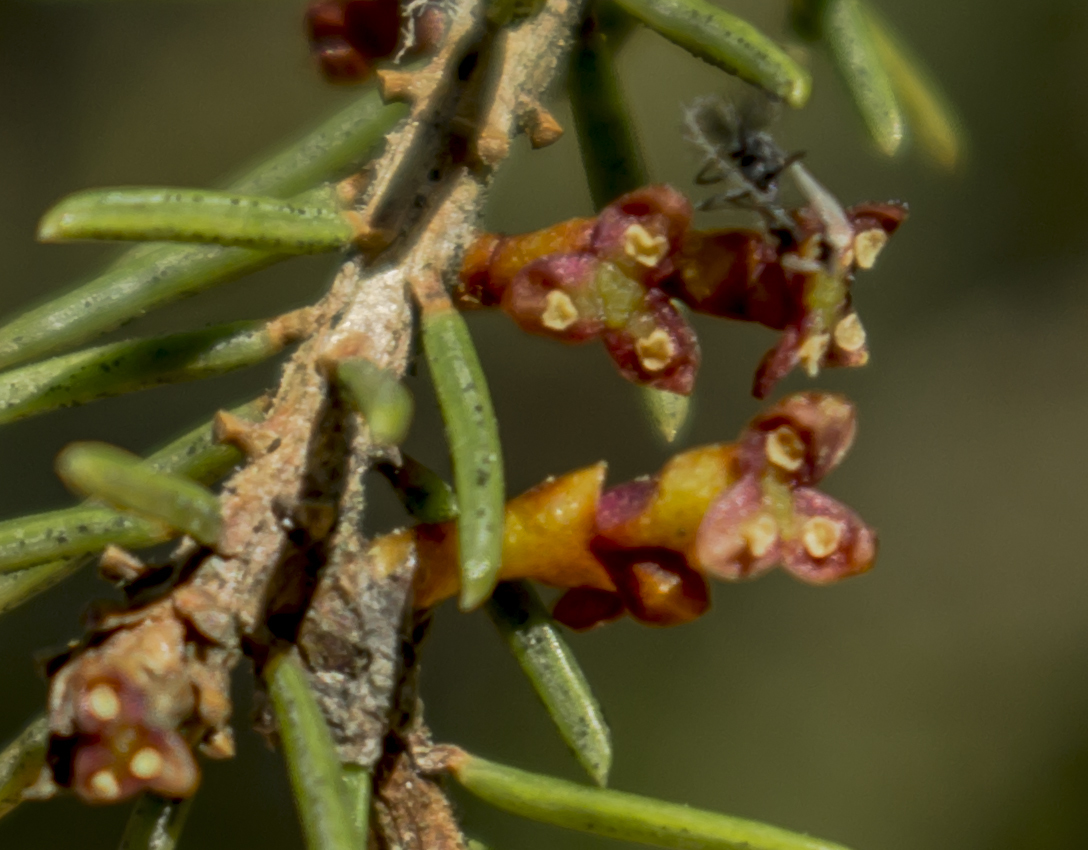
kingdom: Plantae
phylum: Tracheophyta
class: Magnoliopsida
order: Santalales
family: Viscaceae
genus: Arceuthobium
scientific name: Arceuthobium pusillum
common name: Dwarf-mistletoe
